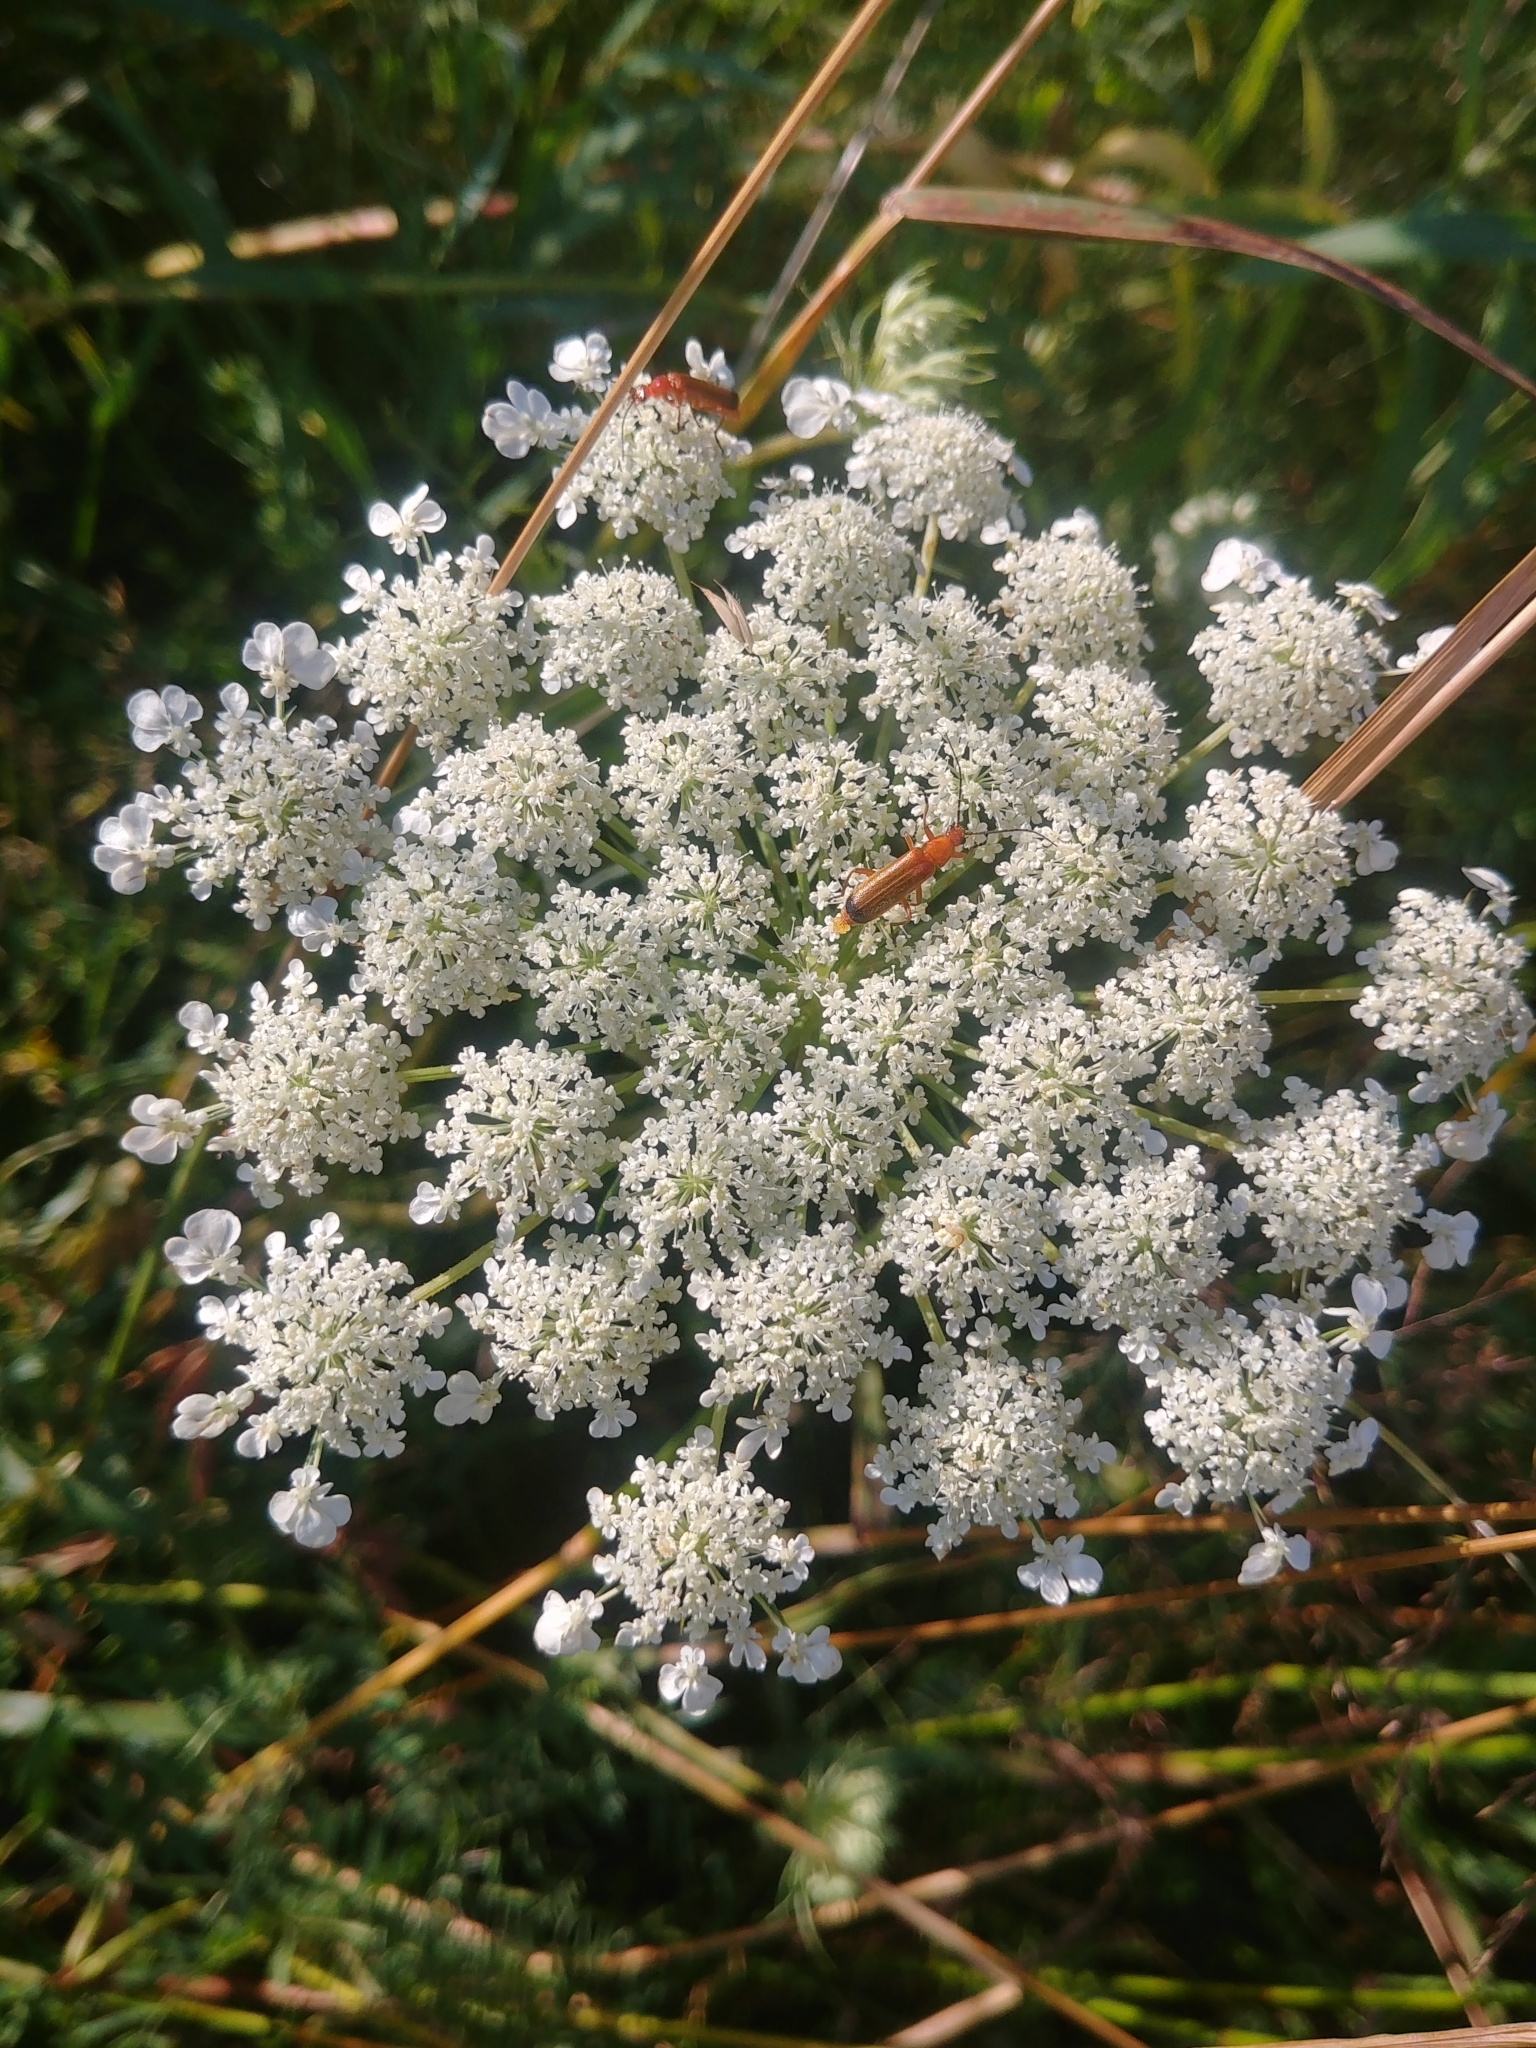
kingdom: Plantae
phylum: Tracheophyta
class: Magnoliopsida
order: Apiales
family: Apiaceae
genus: Daucus
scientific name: Daucus carota
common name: Wild carrot
